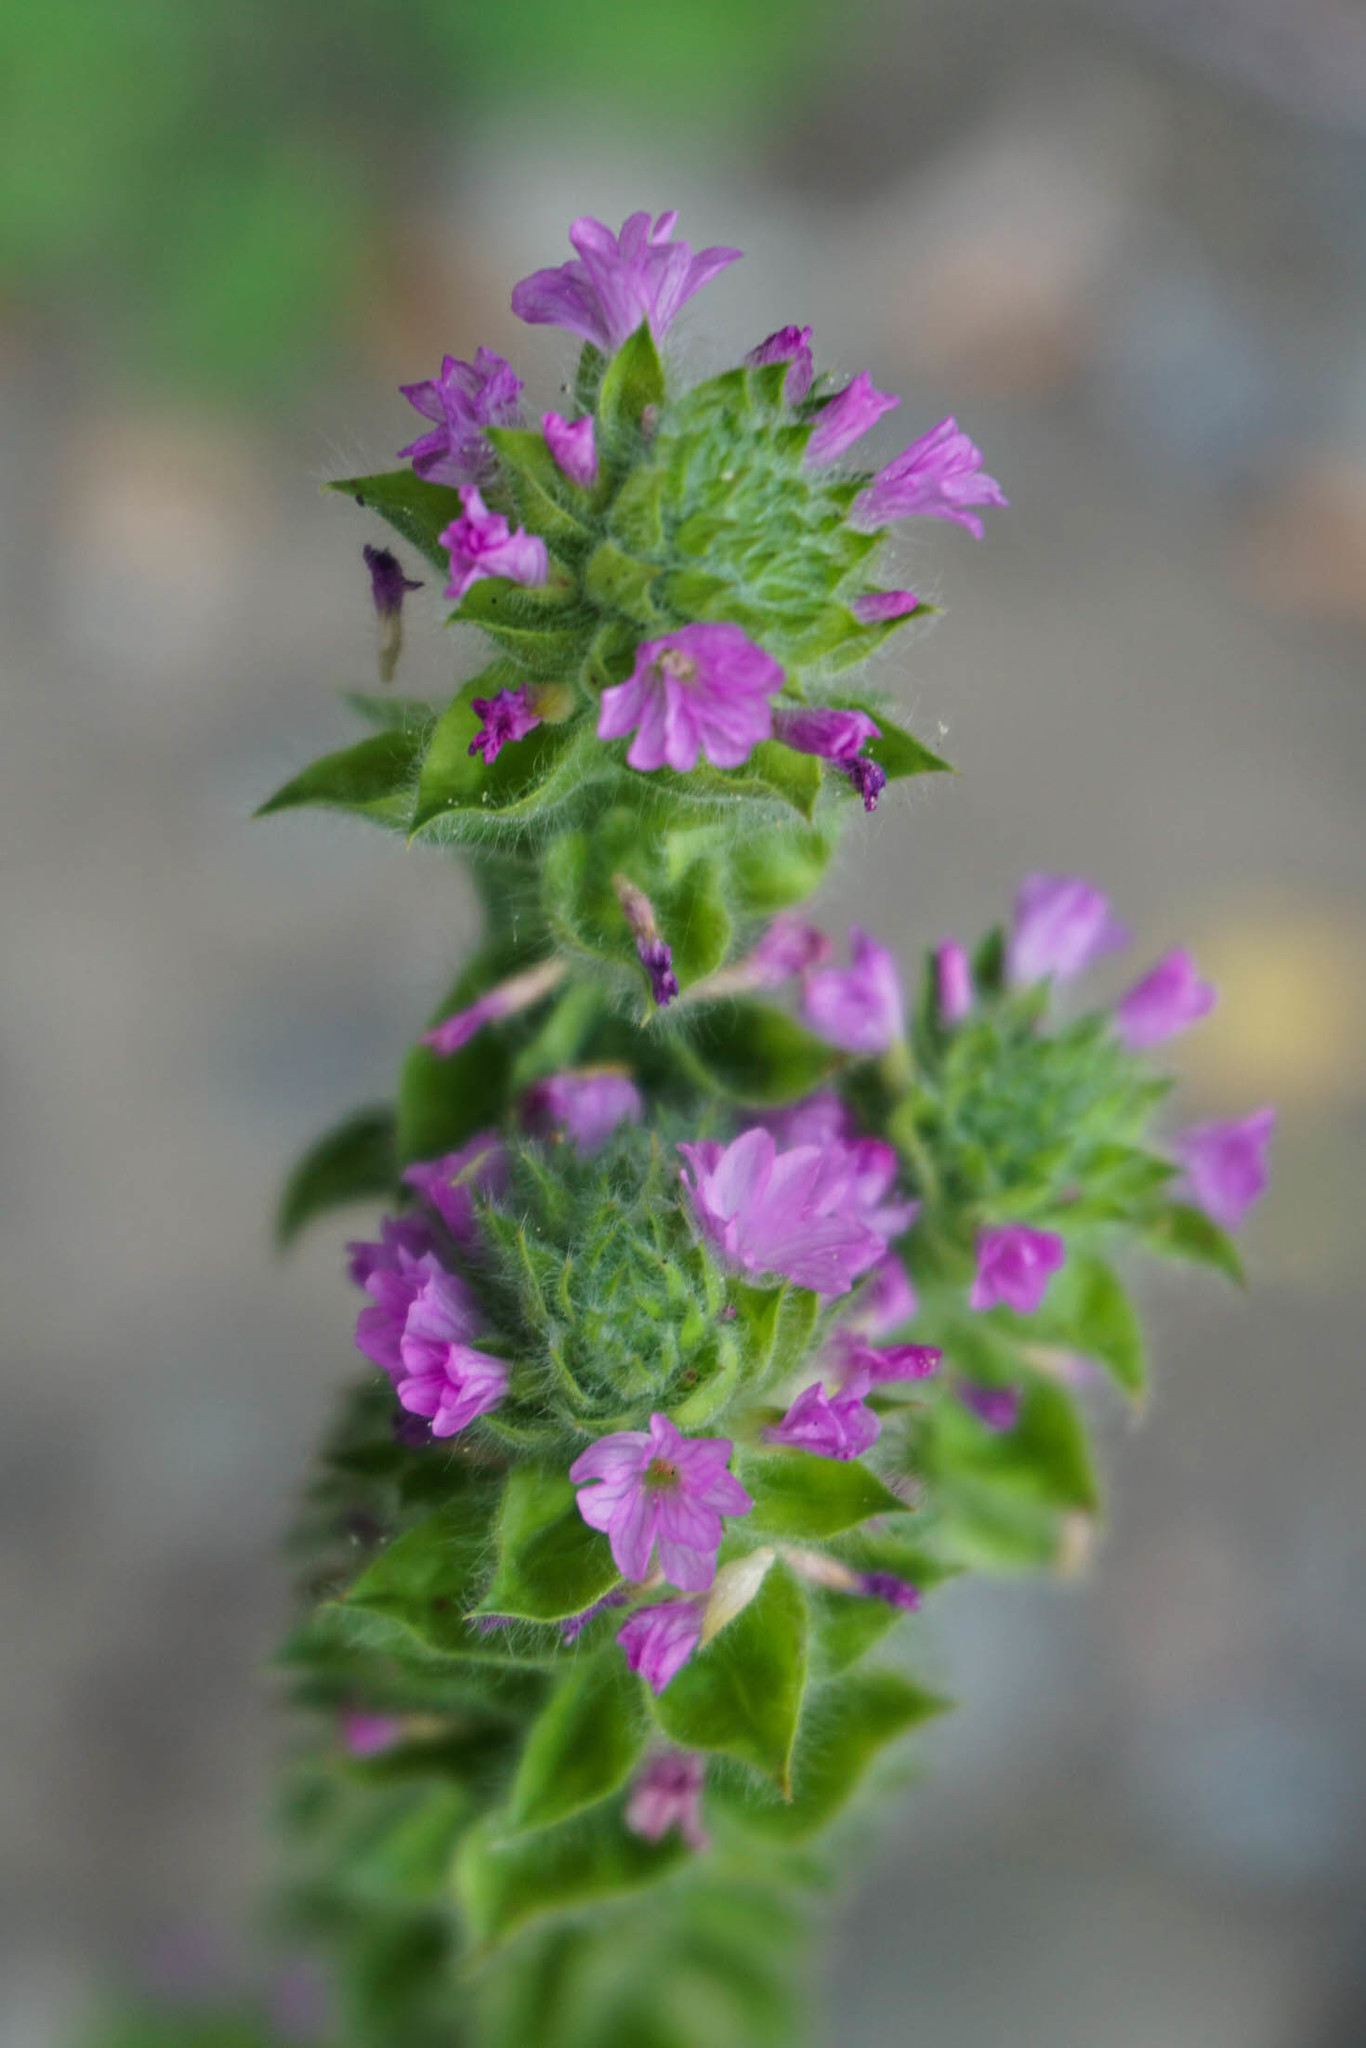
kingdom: Plantae
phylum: Tracheophyta
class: Magnoliopsida
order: Myrtales
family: Onagraceae
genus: Epilobium
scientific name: Epilobium densiflorum
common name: Dense spike-primrose
